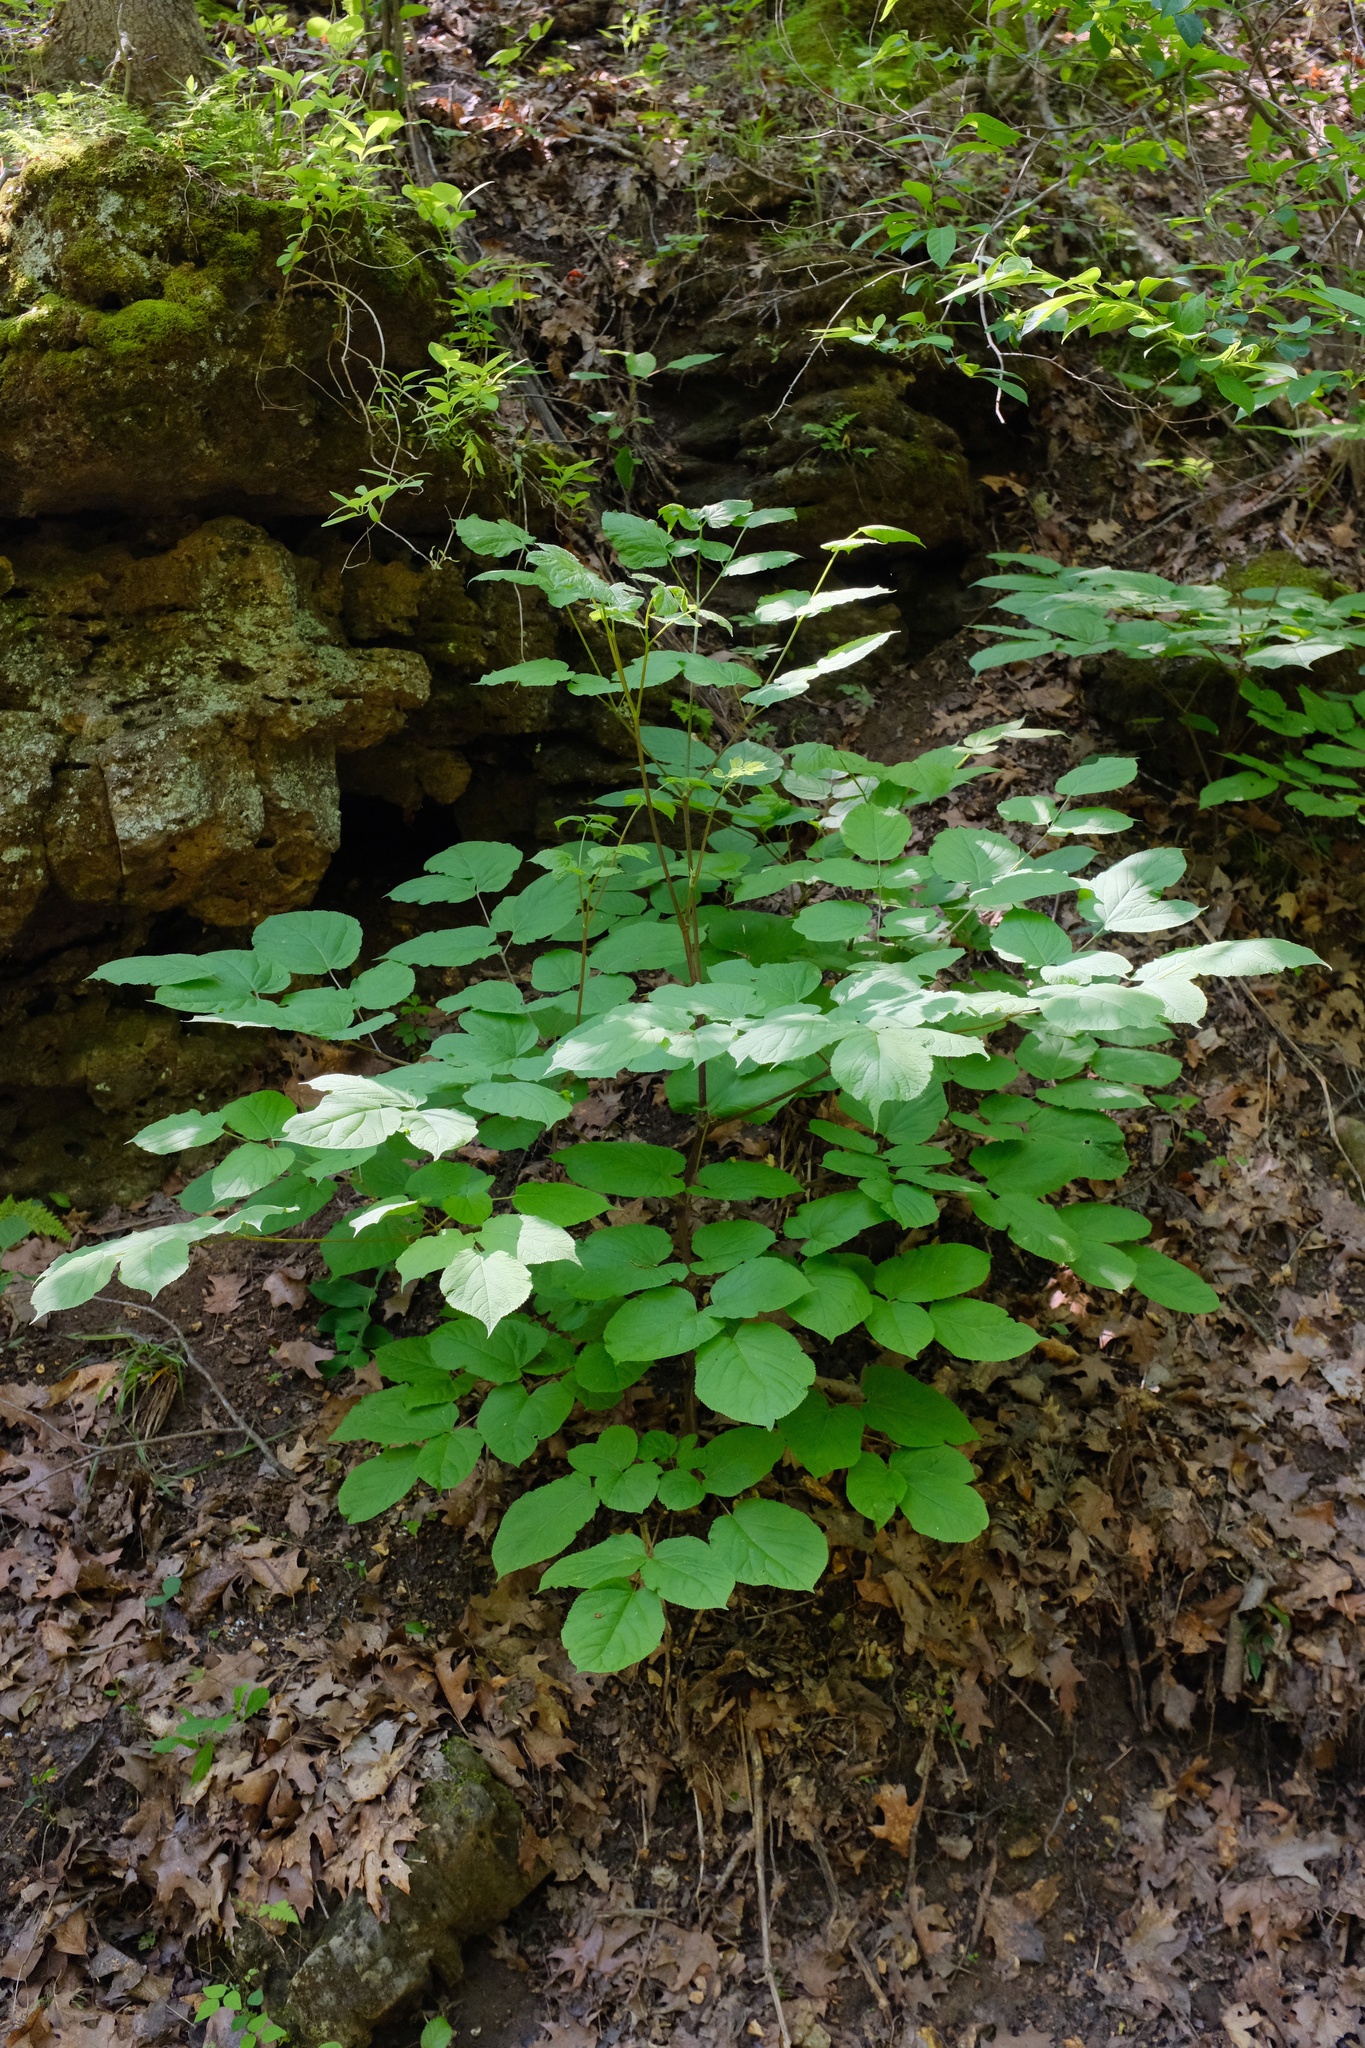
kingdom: Plantae
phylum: Tracheophyta
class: Magnoliopsida
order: Apiales
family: Araliaceae
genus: Aralia
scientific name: Aralia racemosa
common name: American-spikenard
